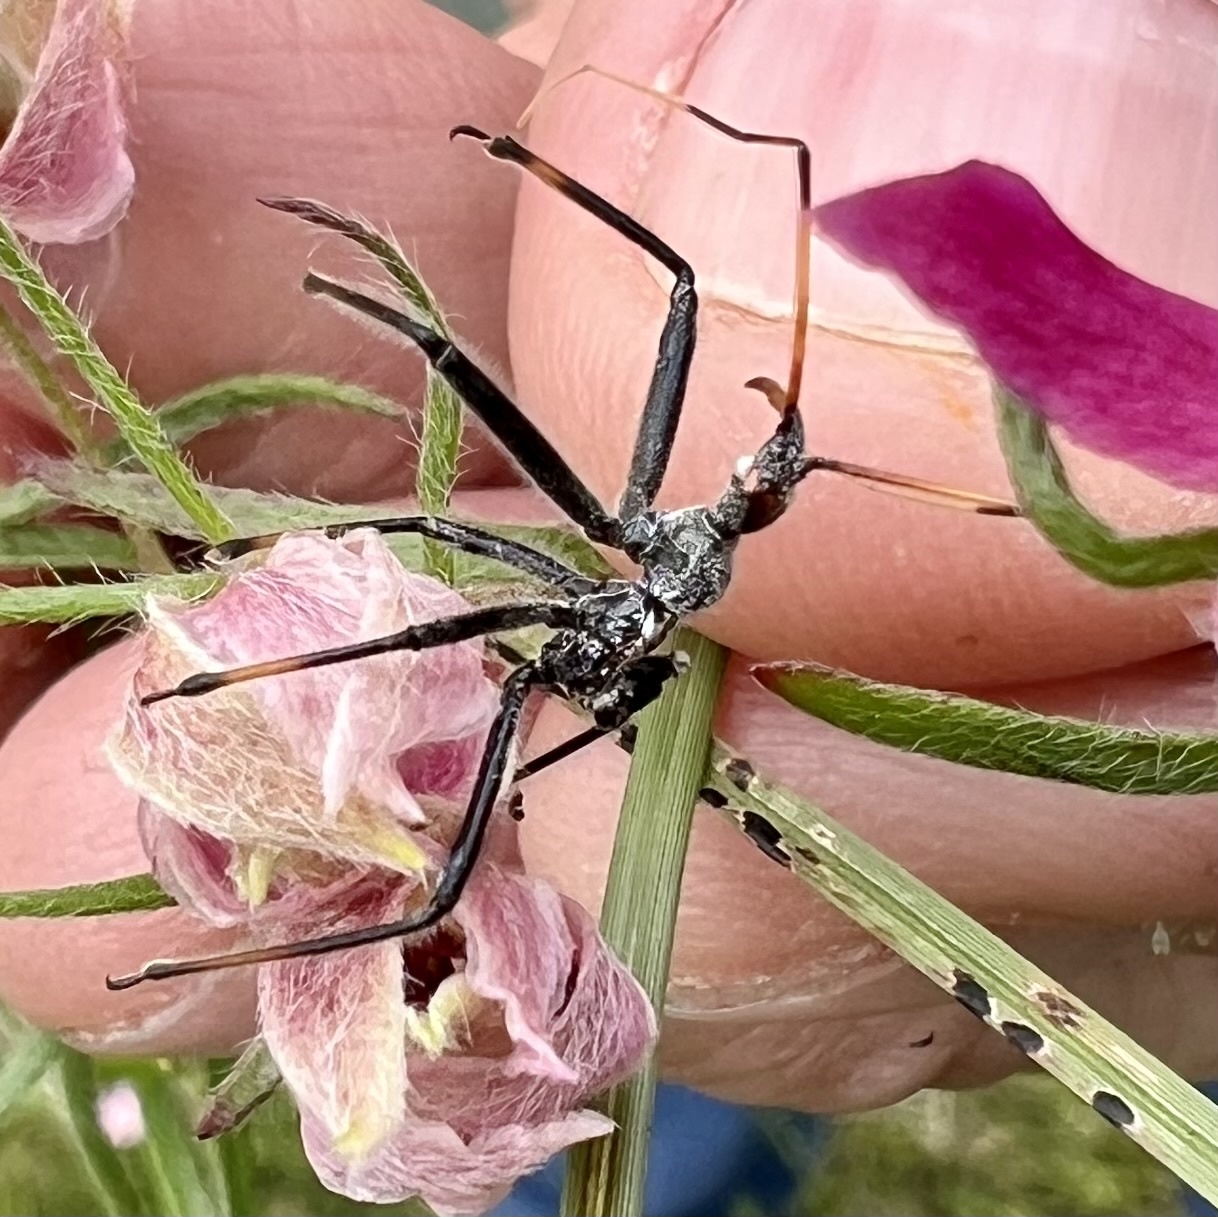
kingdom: Animalia
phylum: Arthropoda
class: Insecta
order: Hemiptera
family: Reduviidae
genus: Arilus
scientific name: Arilus cristatus
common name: North american wheel bug
